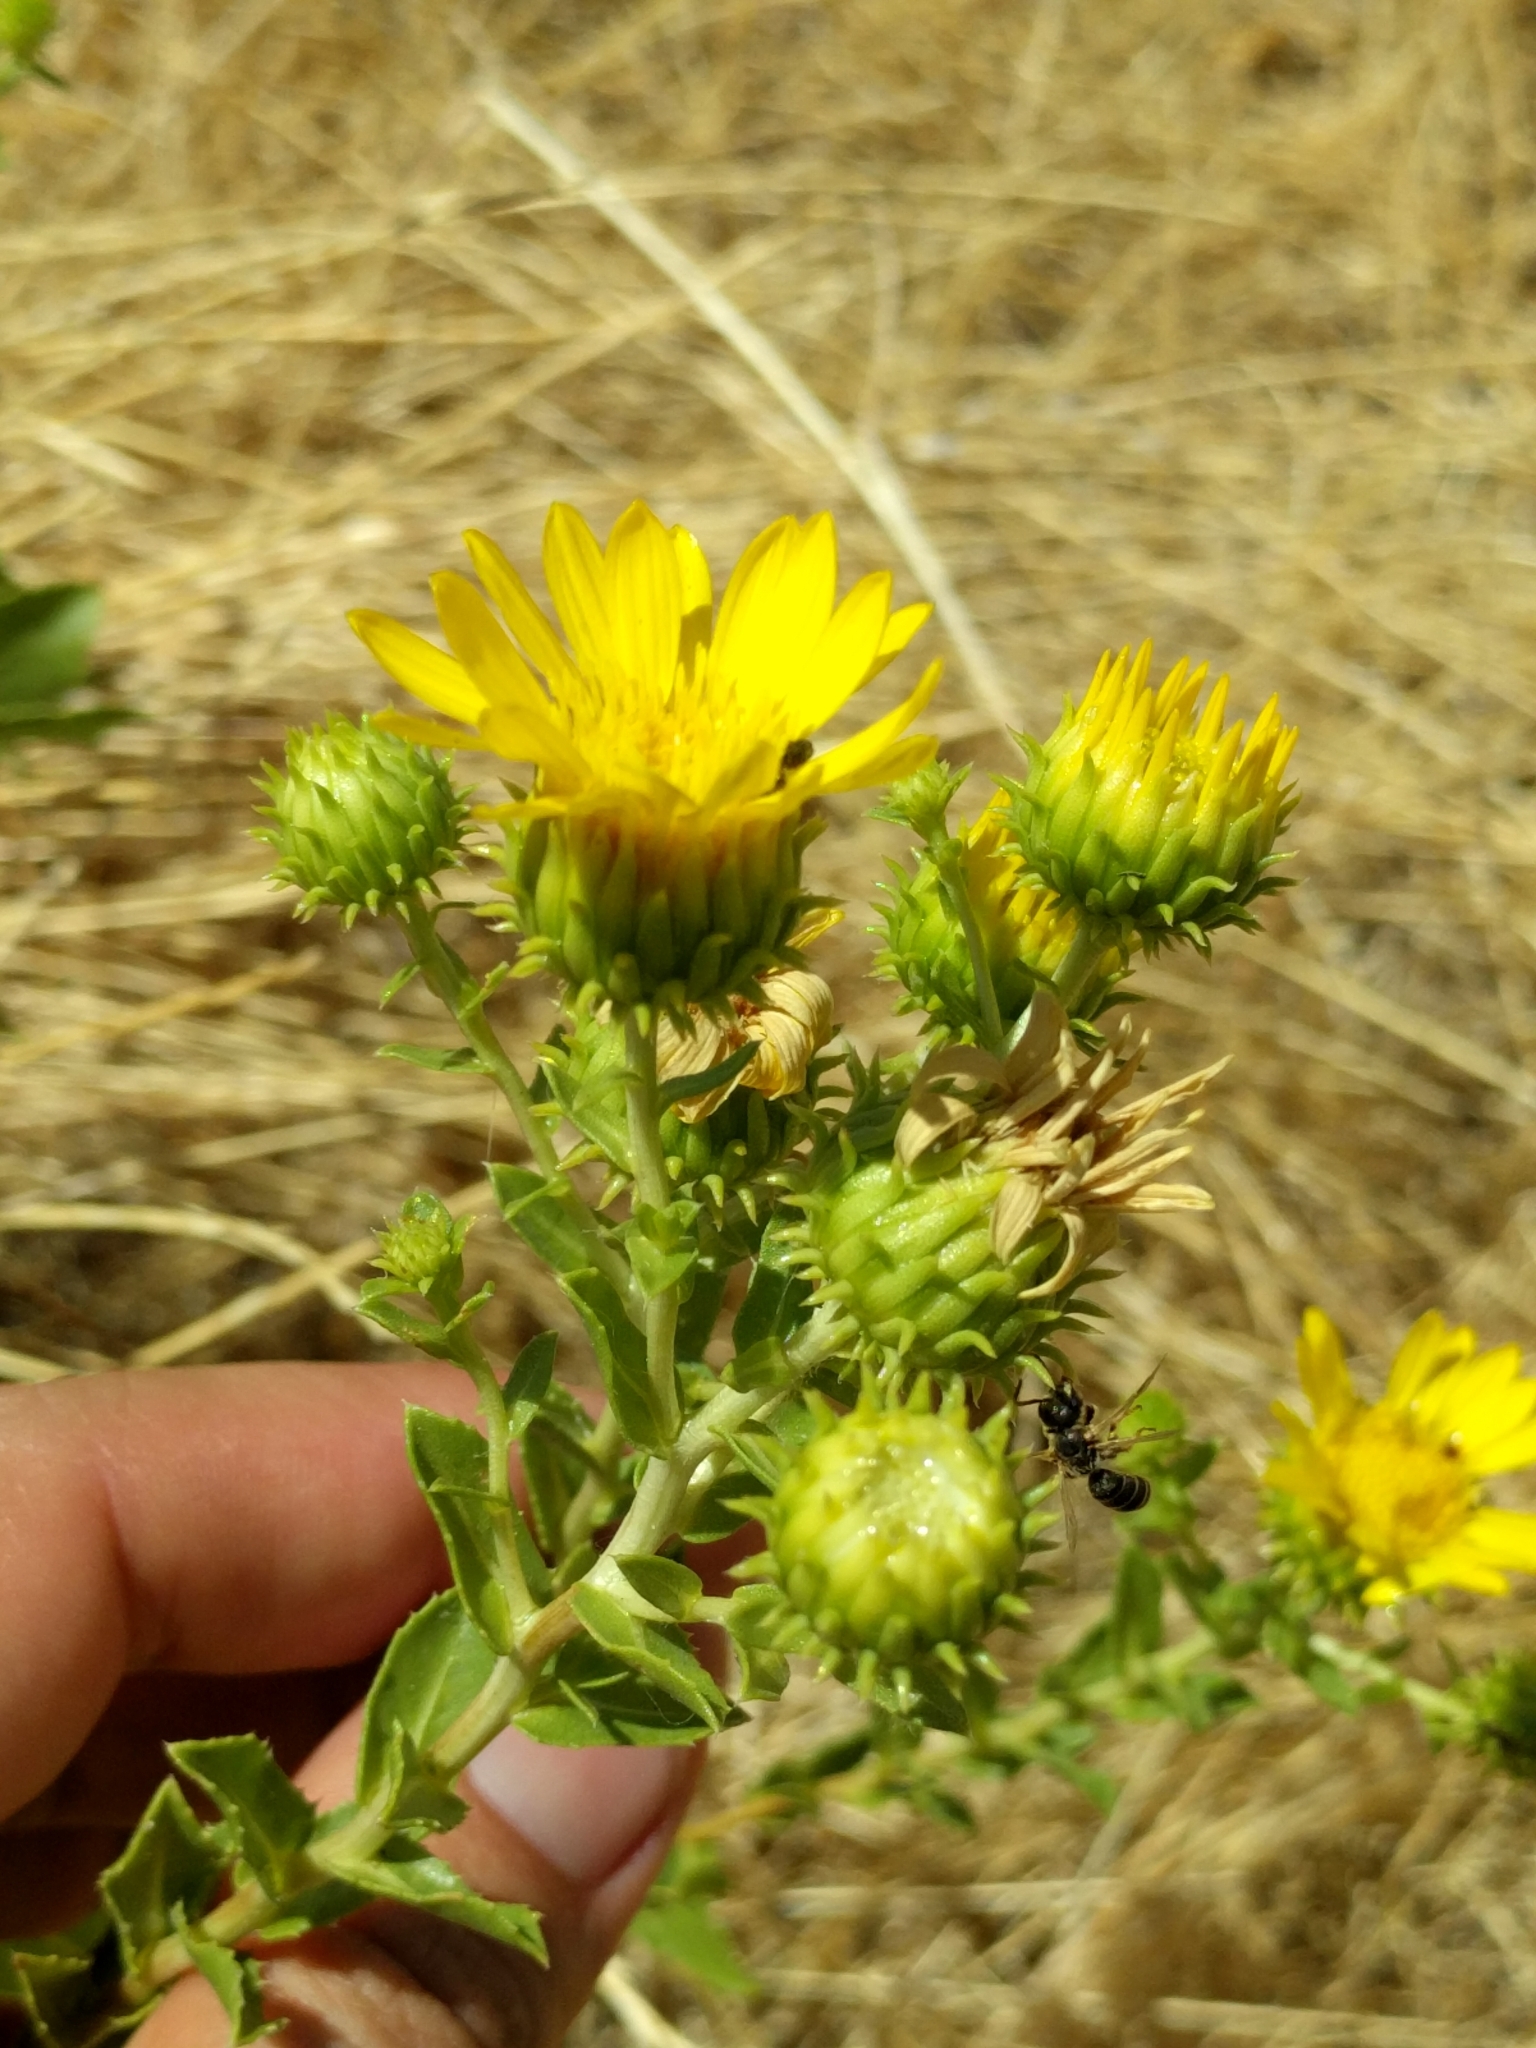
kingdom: Plantae
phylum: Tracheophyta
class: Magnoliopsida
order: Asterales
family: Asteraceae
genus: Grindelia
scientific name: Grindelia hirsutula
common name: Hairy gumweed
